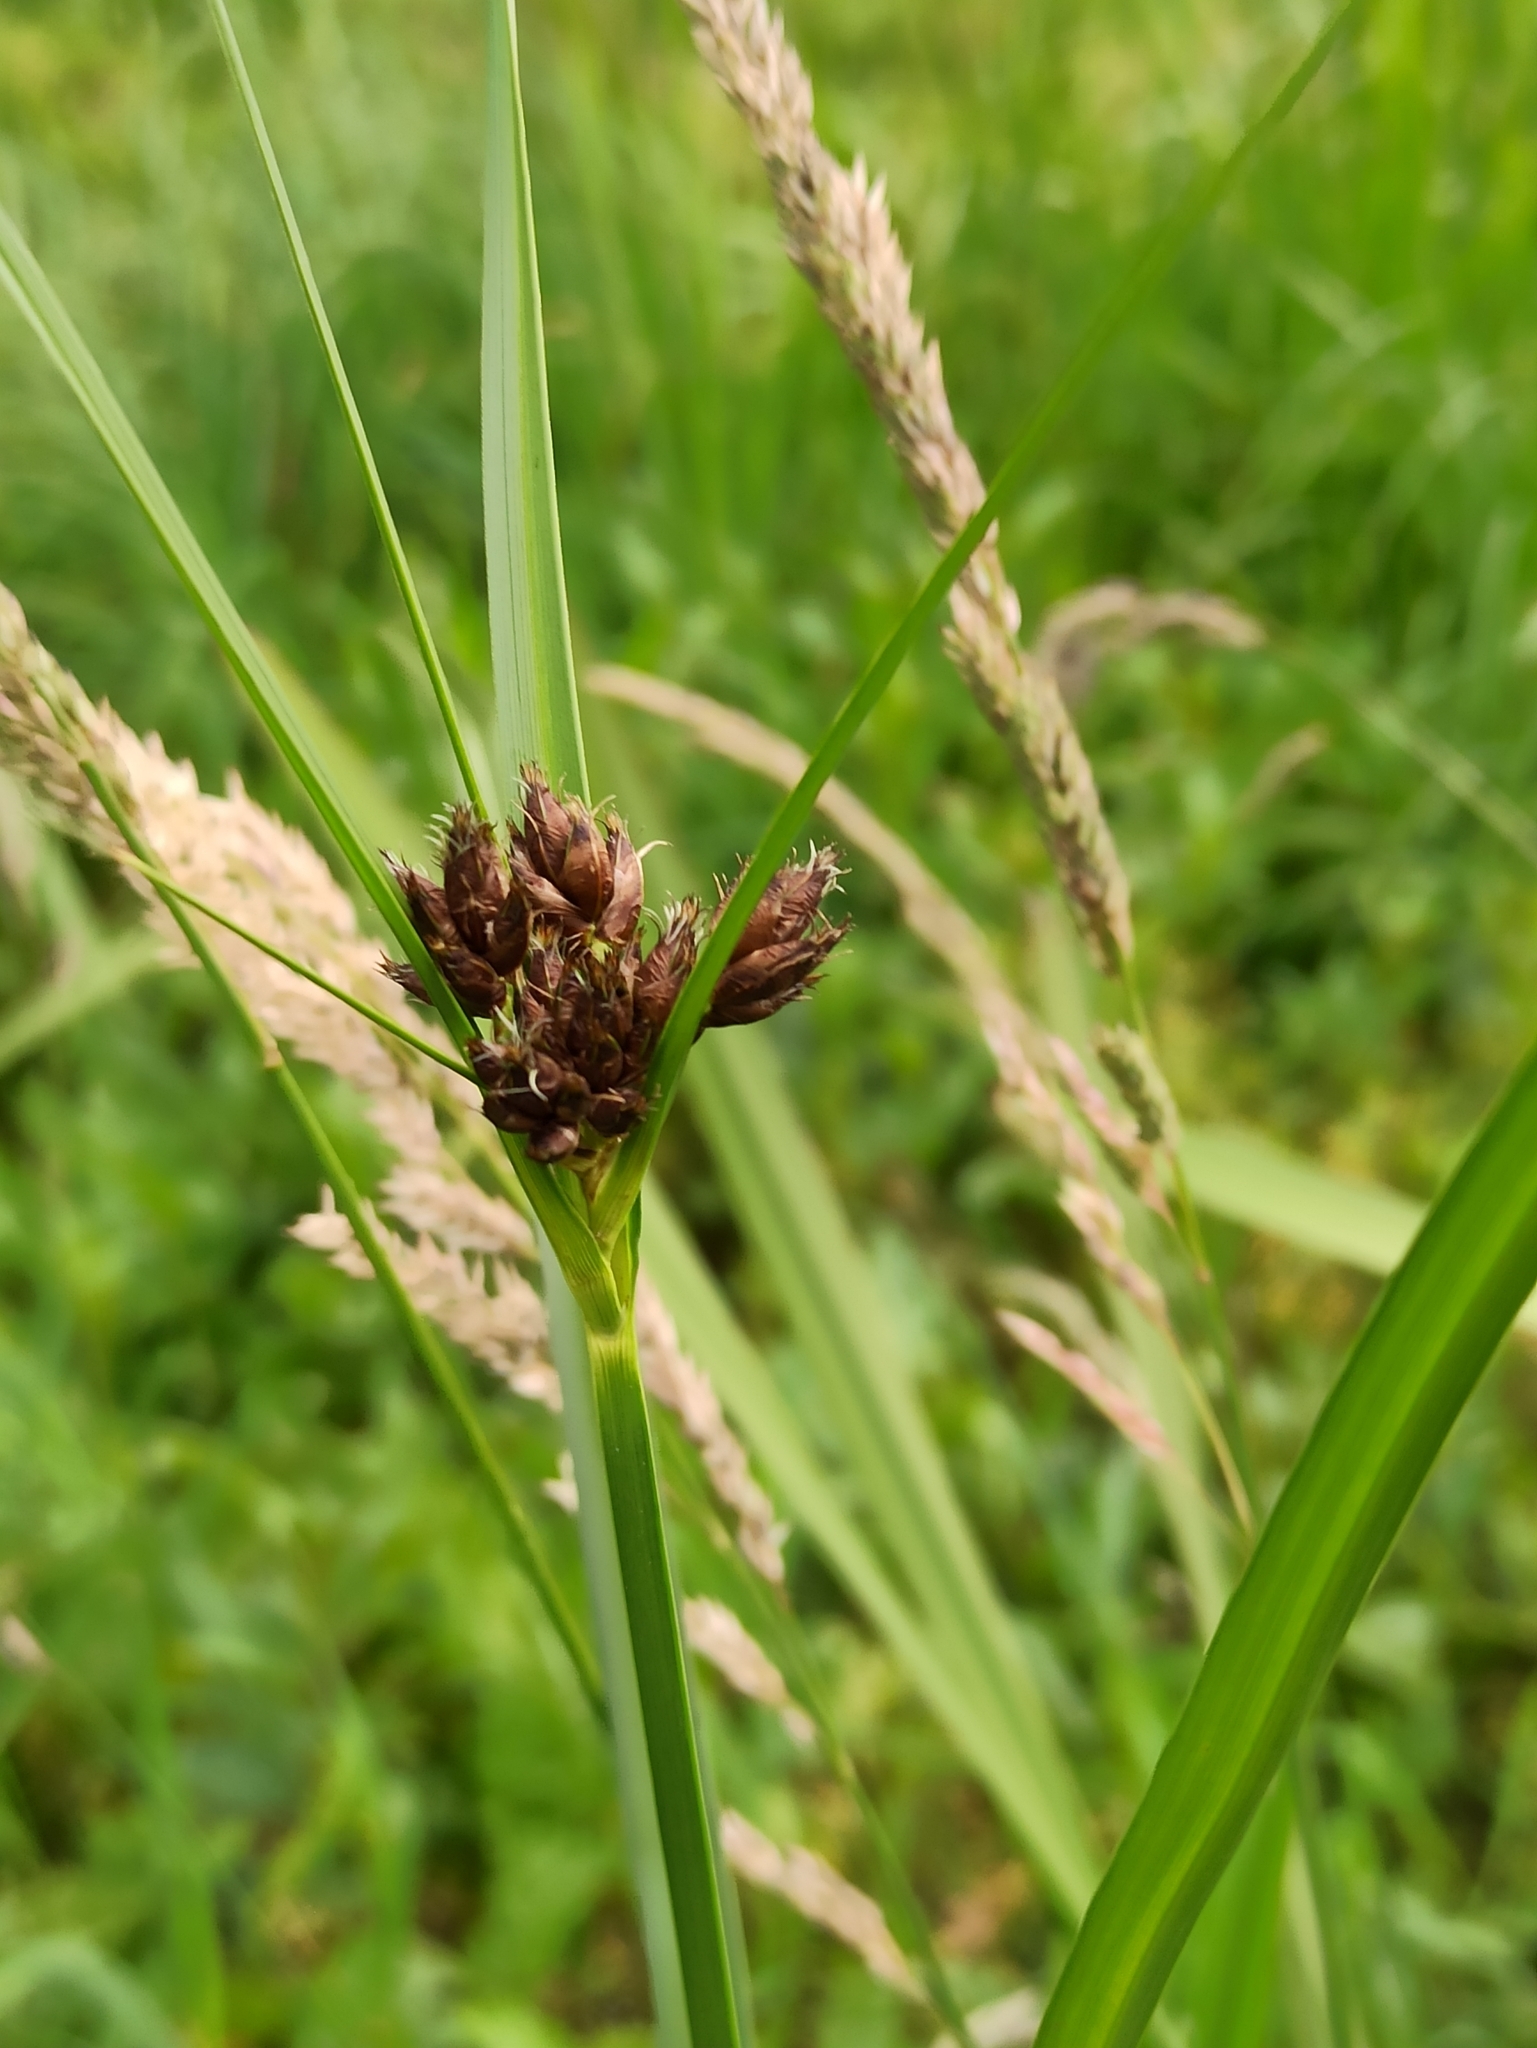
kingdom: Plantae
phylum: Tracheophyta
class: Liliopsida
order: Poales
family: Cyperaceae
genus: Bolboschoenus
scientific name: Bolboschoenus laticarpus
